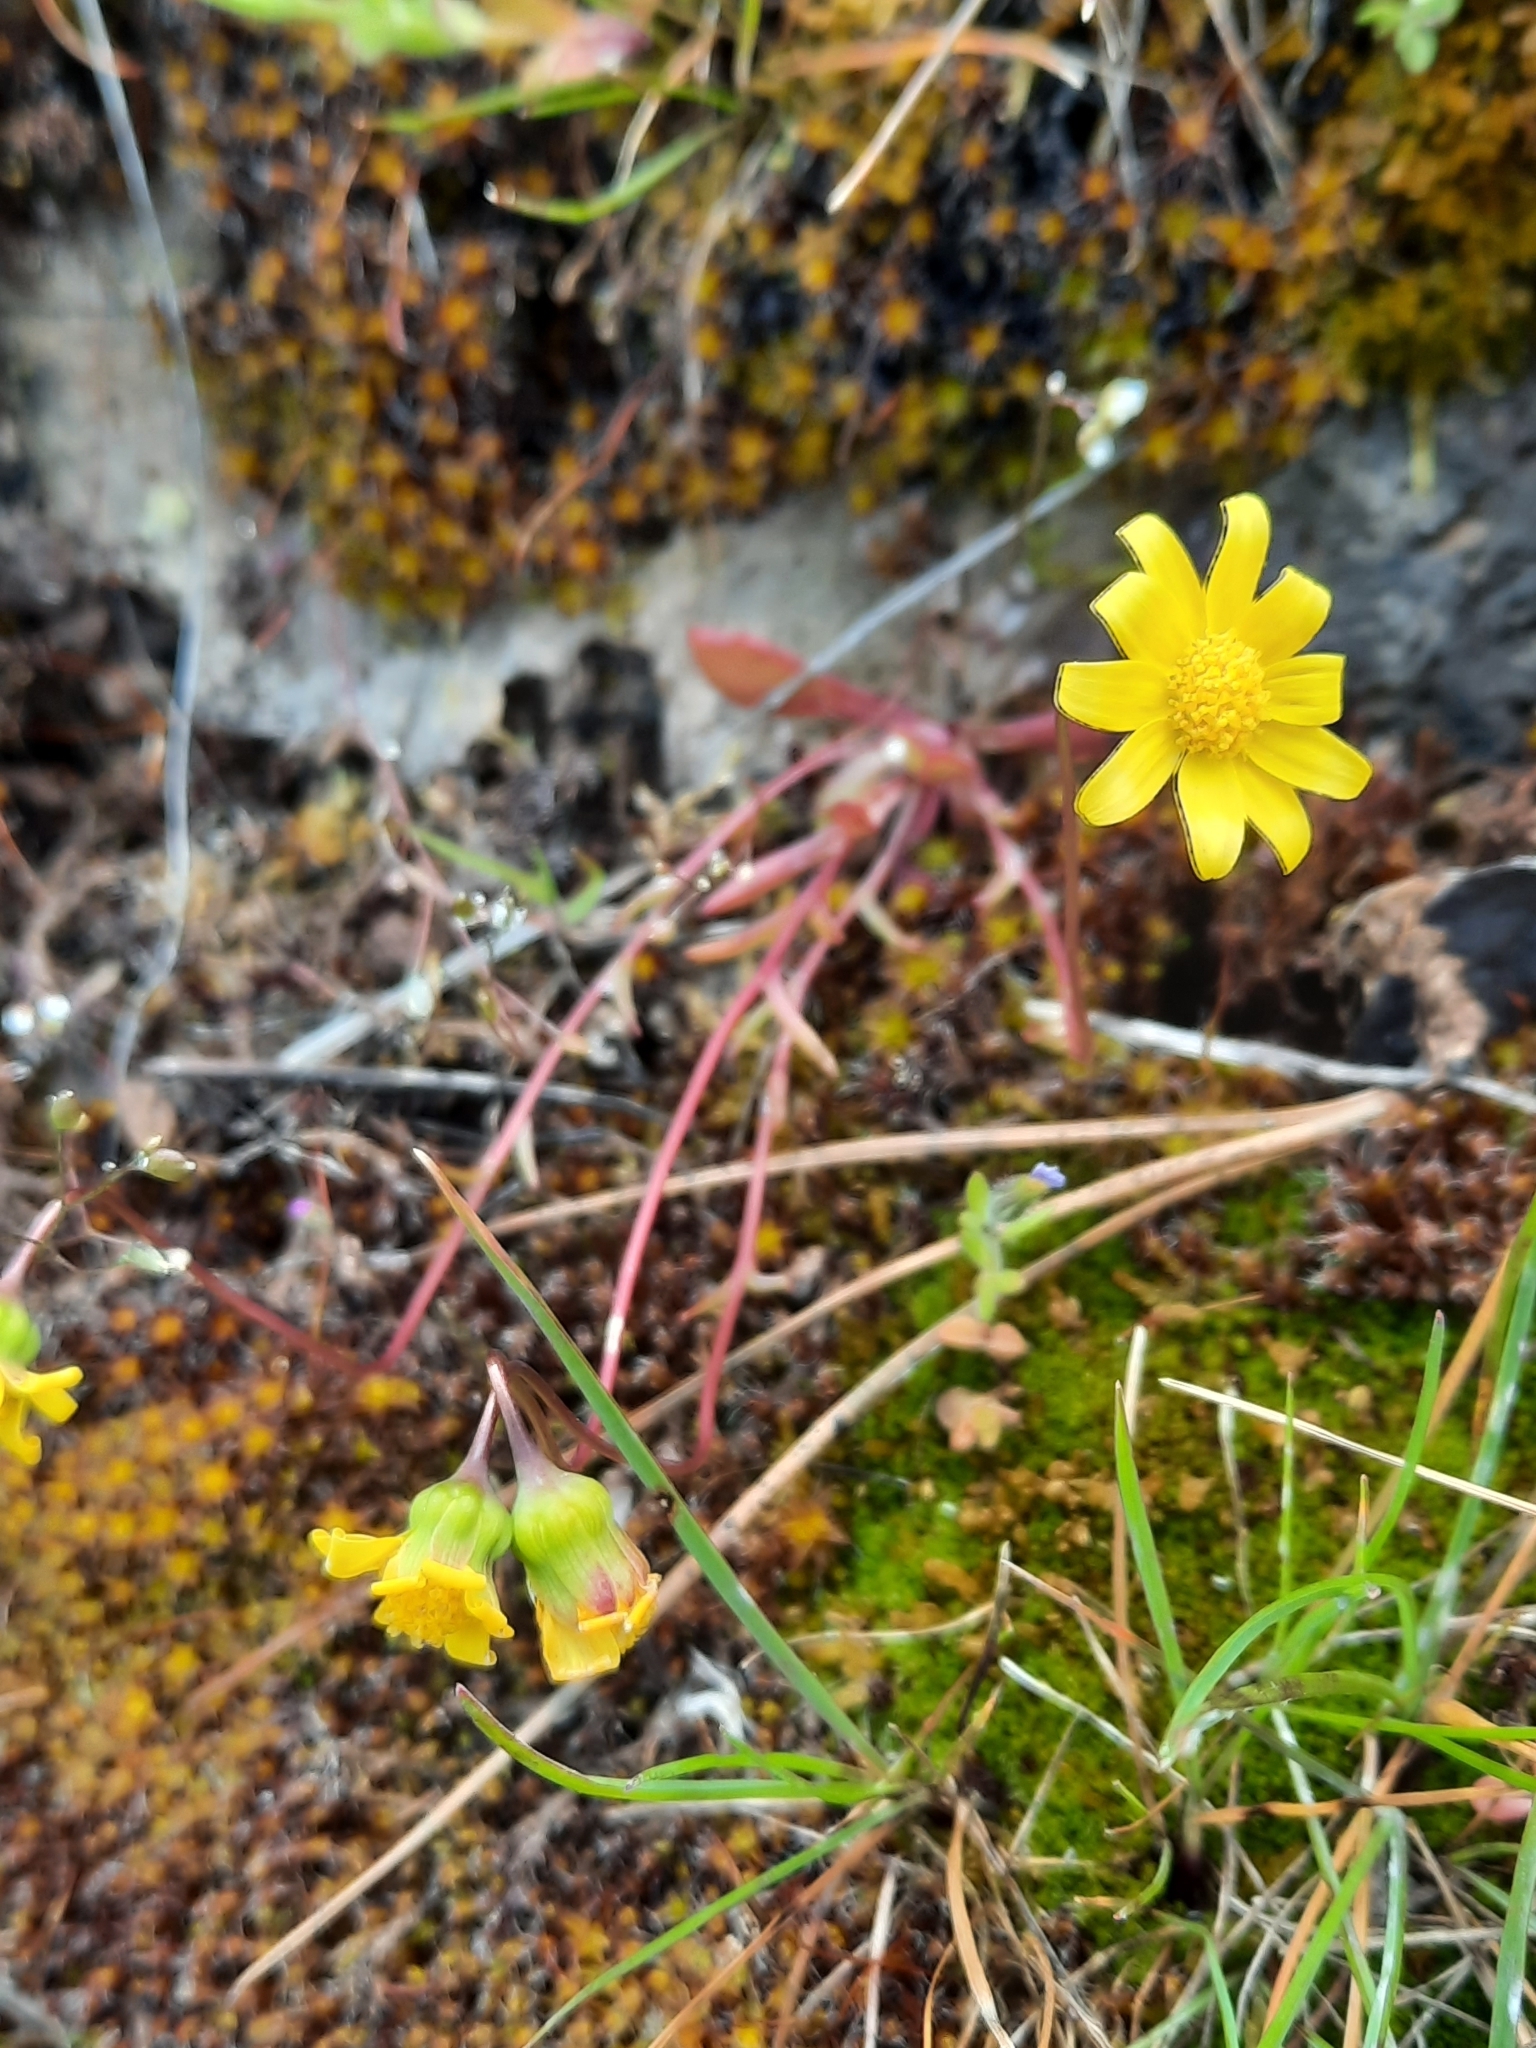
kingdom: Plantae
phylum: Tracheophyta
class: Magnoliopsida
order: Asterales
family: Asteraceae
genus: Crocidium
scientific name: Crocidium multicaule
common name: Common spring gold
